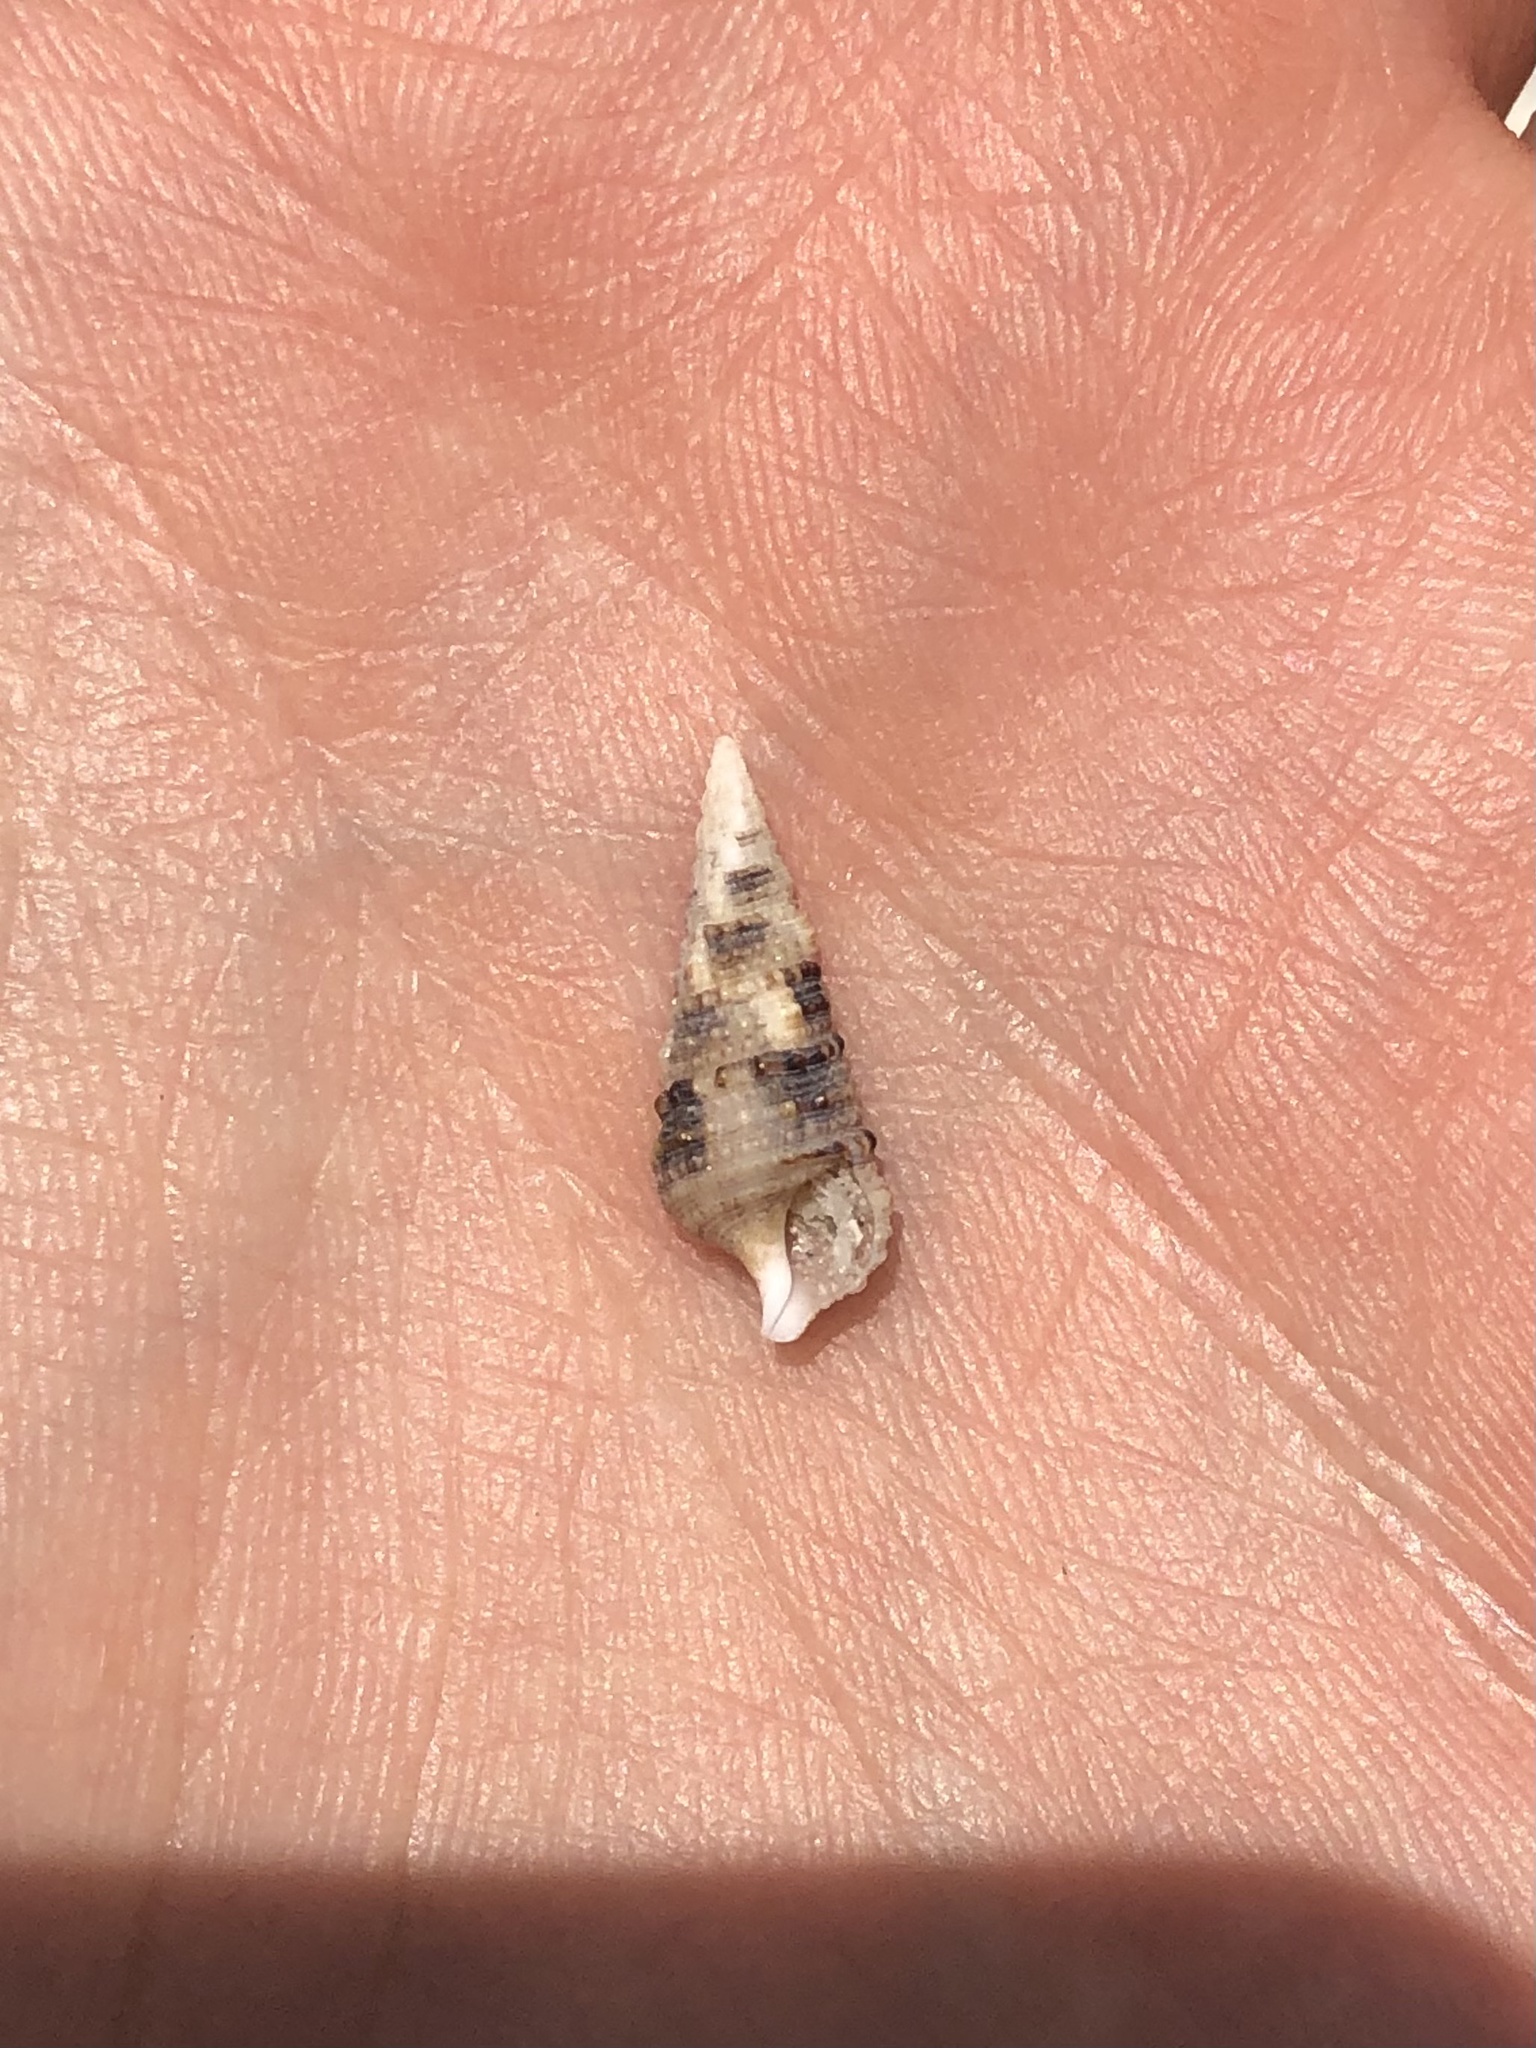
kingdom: Animalia
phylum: Mollusca
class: Gastropoda
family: Cerithiidae
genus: Cerithium
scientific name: Cerithium atratum
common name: Dark cerith
